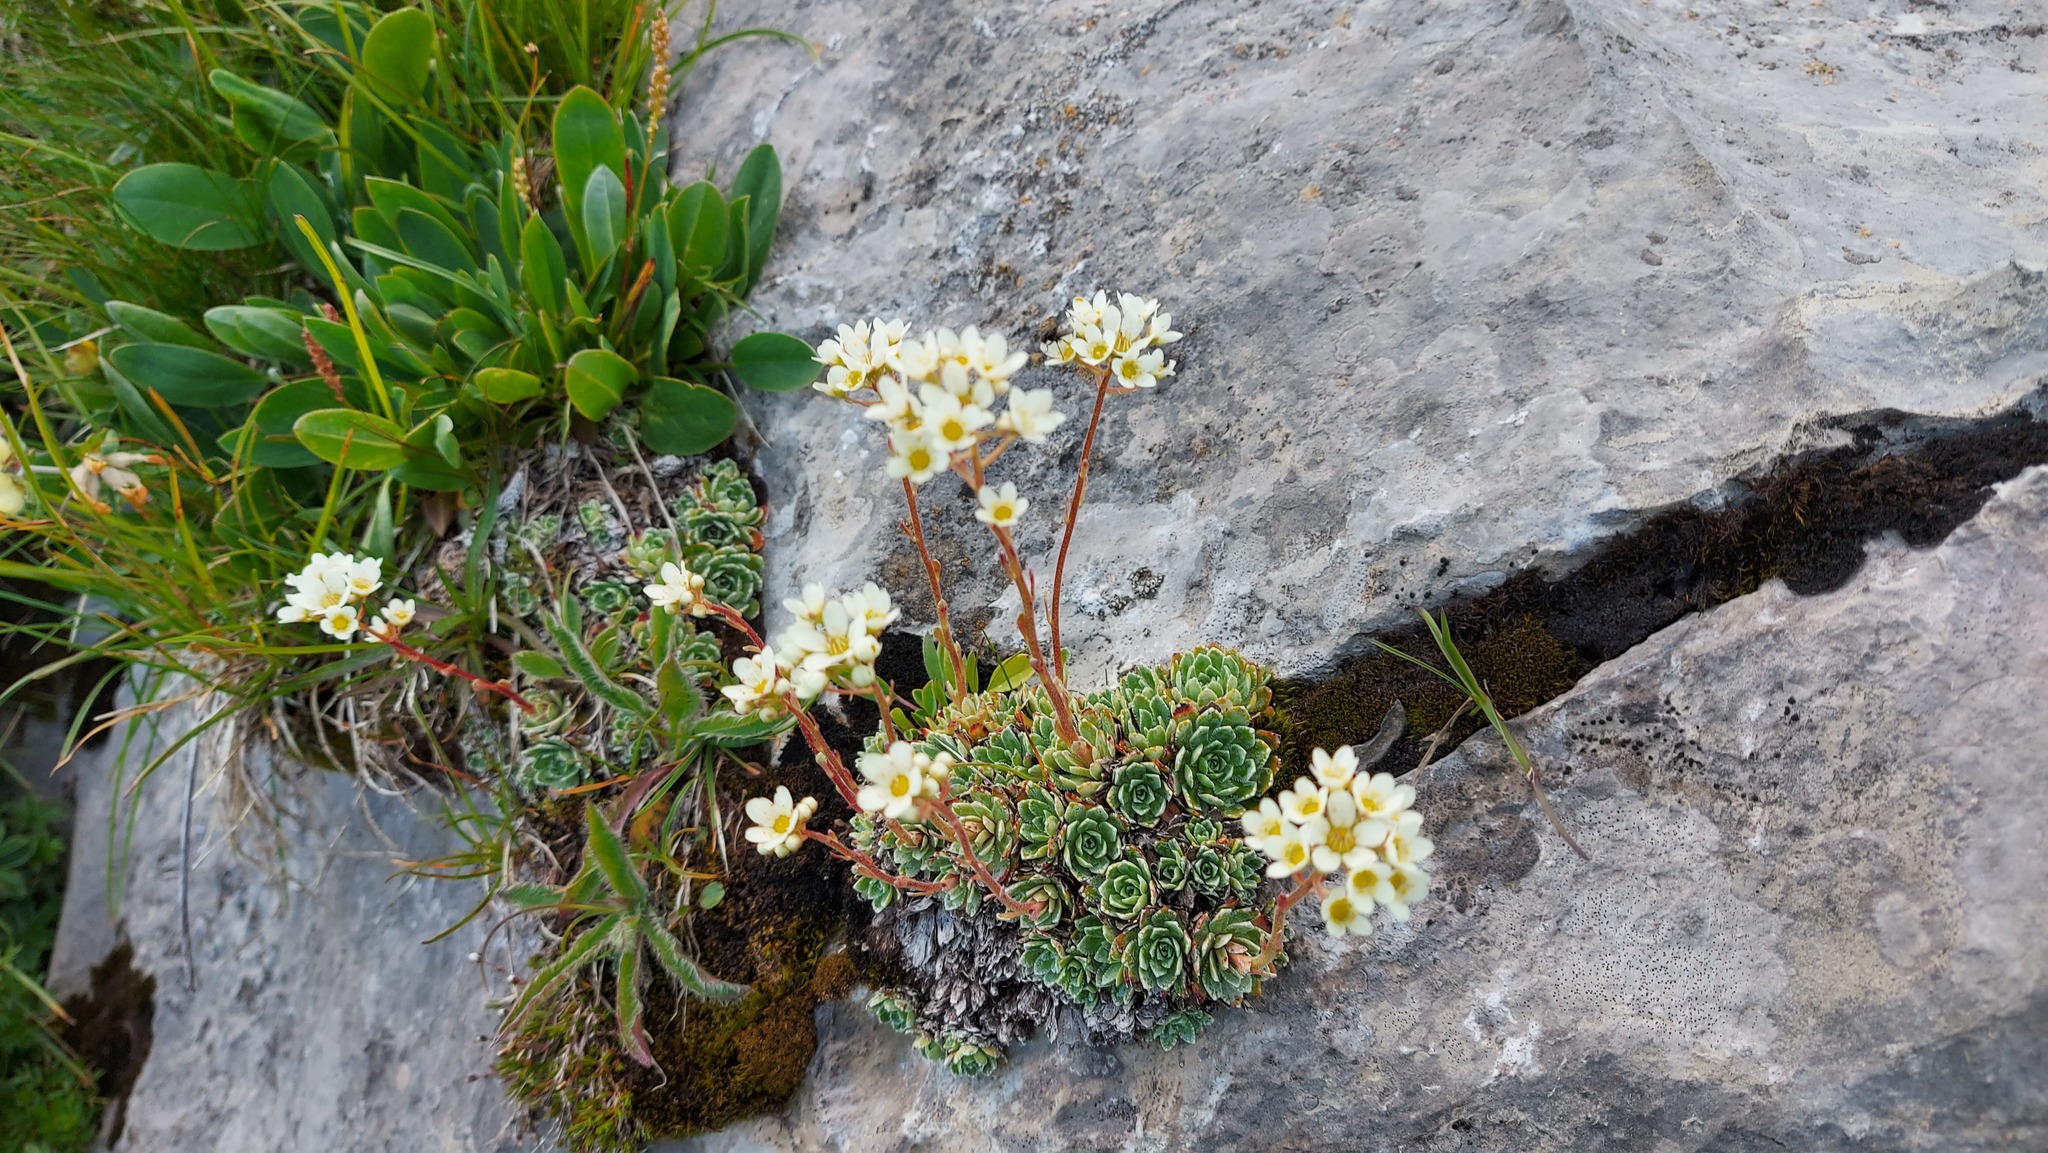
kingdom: Plantae
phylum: Tracheophyta
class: Magnoliopsida
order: Saxifragales
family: Saxifragaceae
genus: Saxifraga
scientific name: Saxifraga paniculata
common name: Livelong saxifrage
